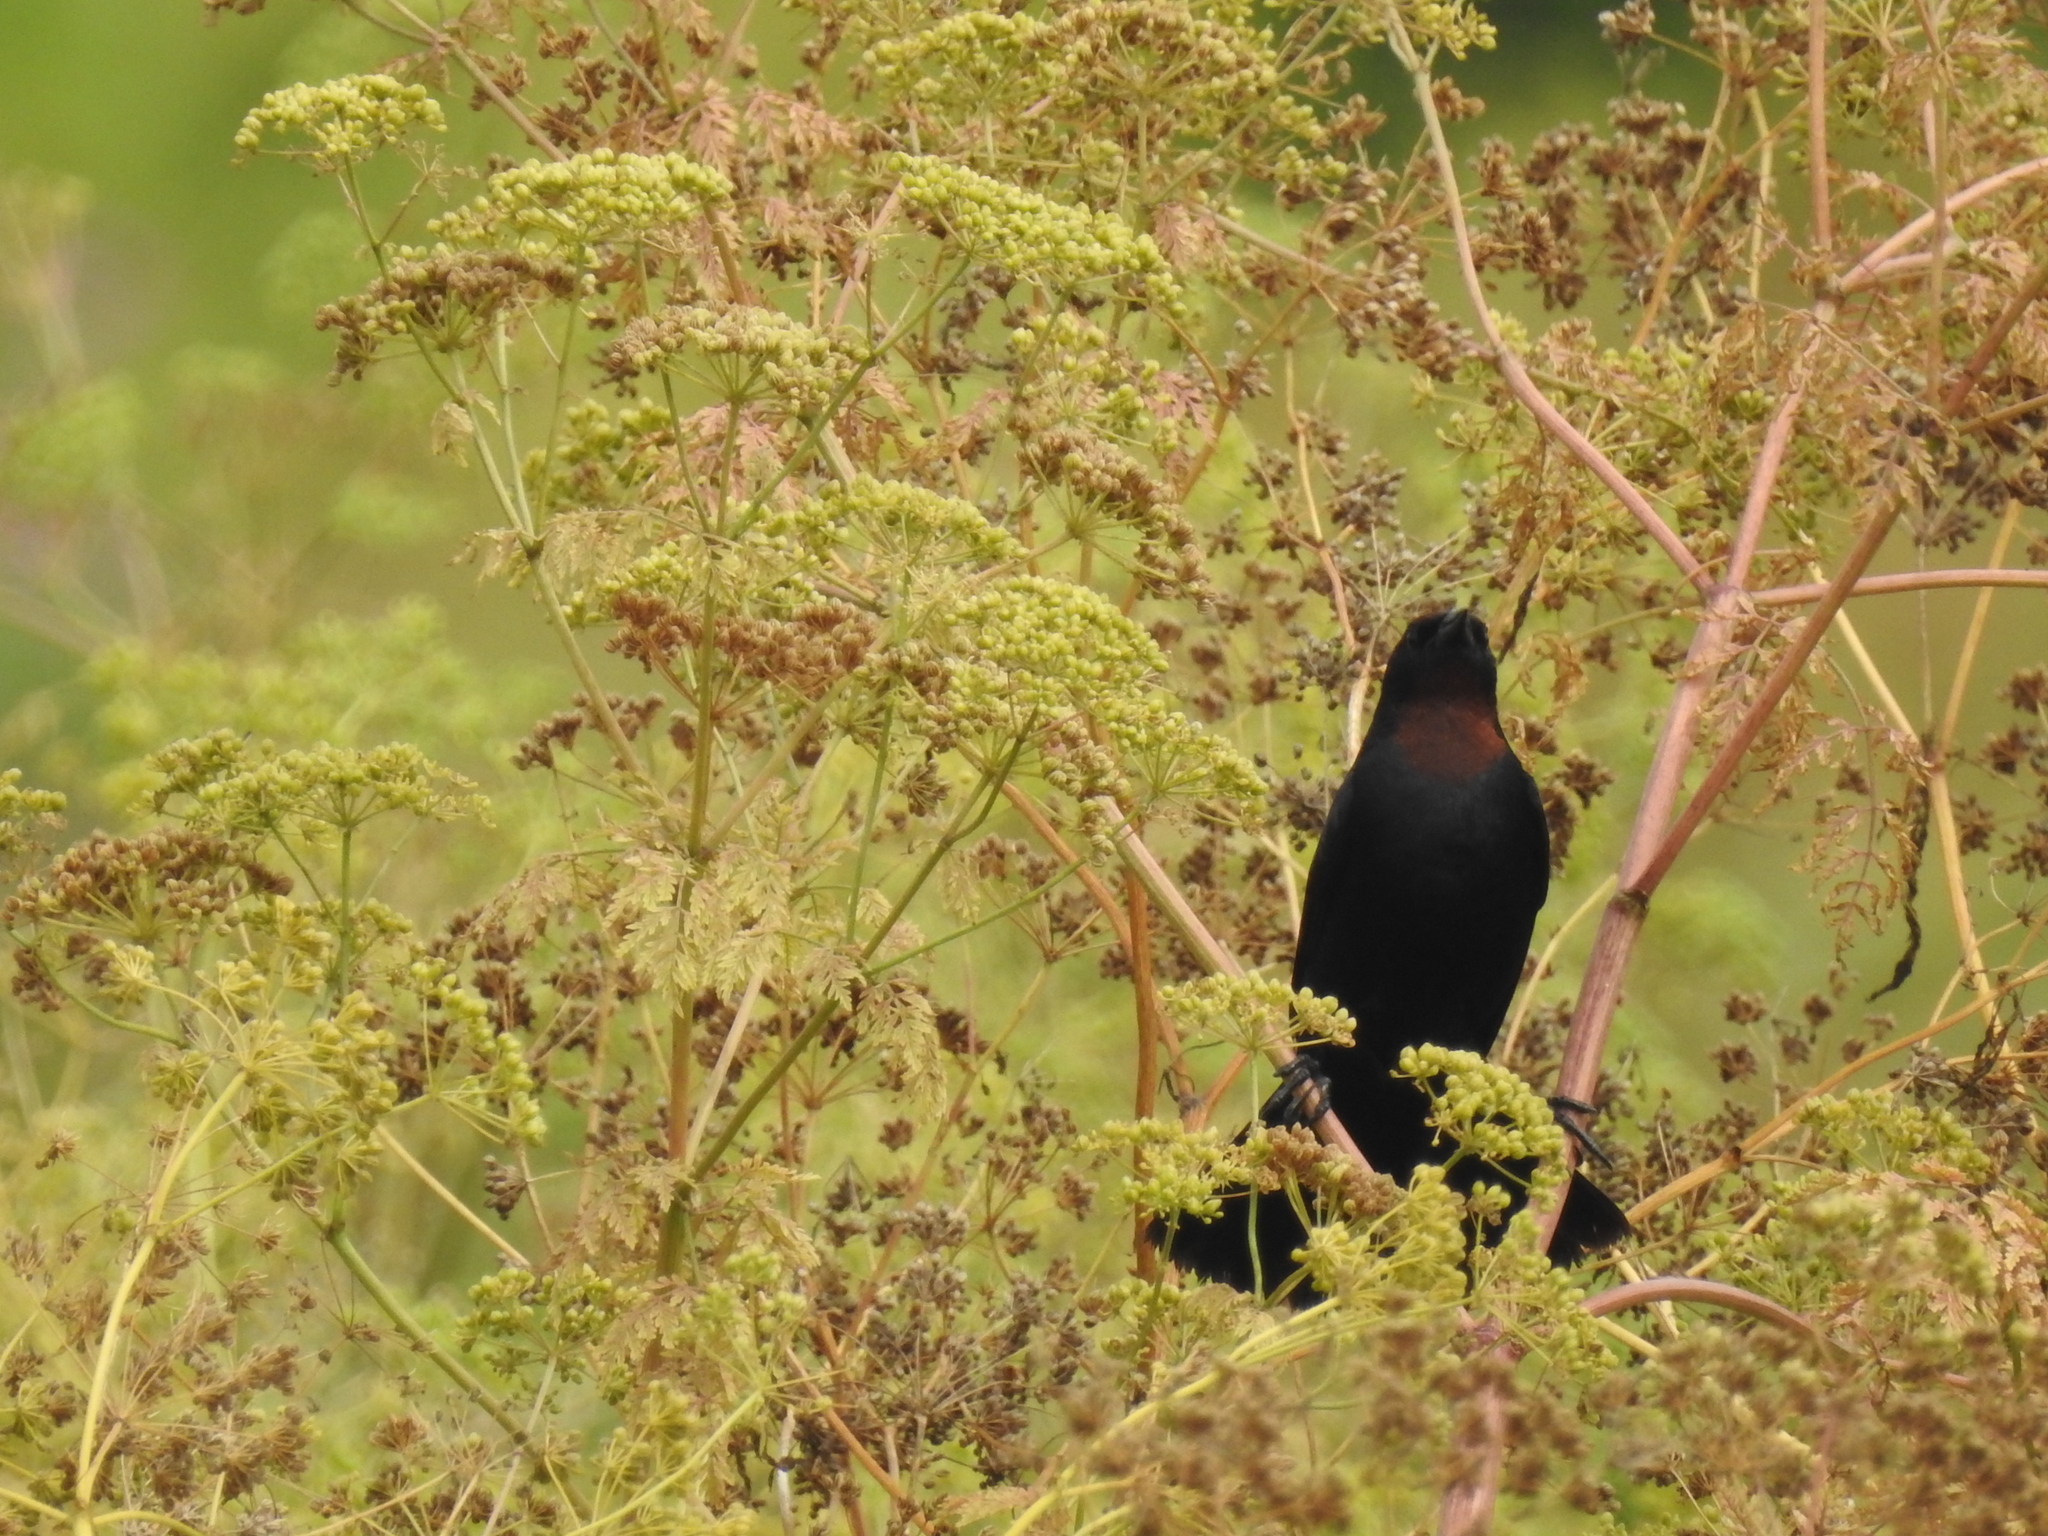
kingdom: Animalia
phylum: Chordata
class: Aves
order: Passeriformes
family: Icteridae
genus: Chrysomus
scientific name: Chrysomus ruficapillus
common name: Chestnut-capped blackbird
